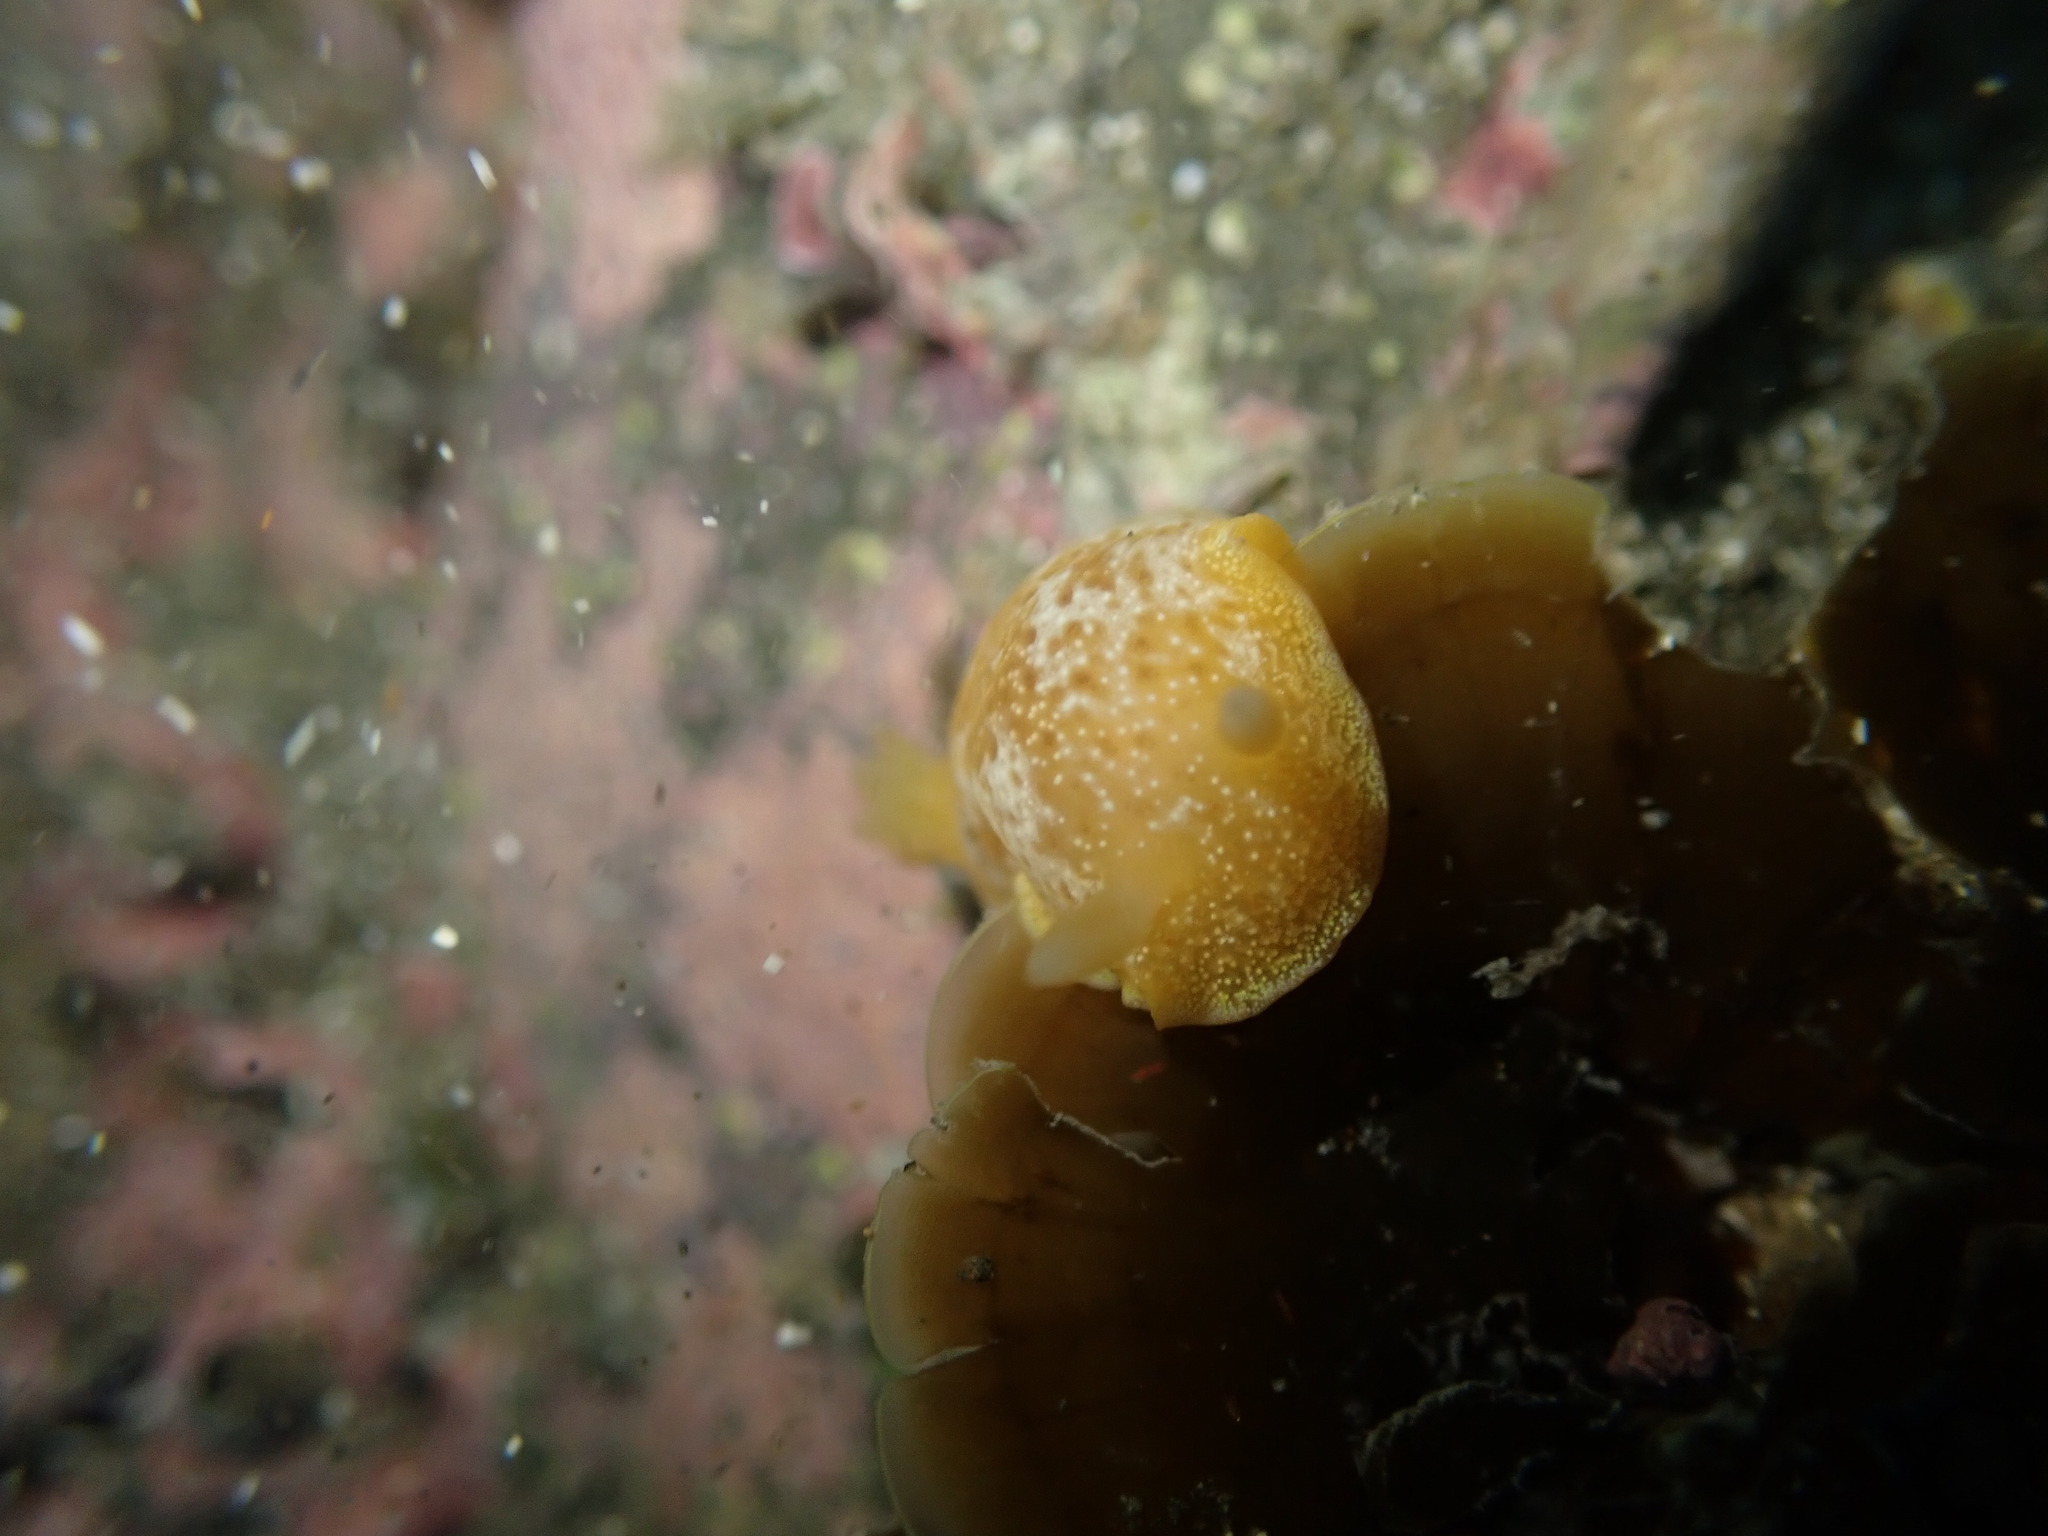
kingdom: Animalia
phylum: Mollusca
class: Gastropoda
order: Nudibranchia
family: Dendrodorididae
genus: Dendrodoris
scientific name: Dendrodoris citrina
